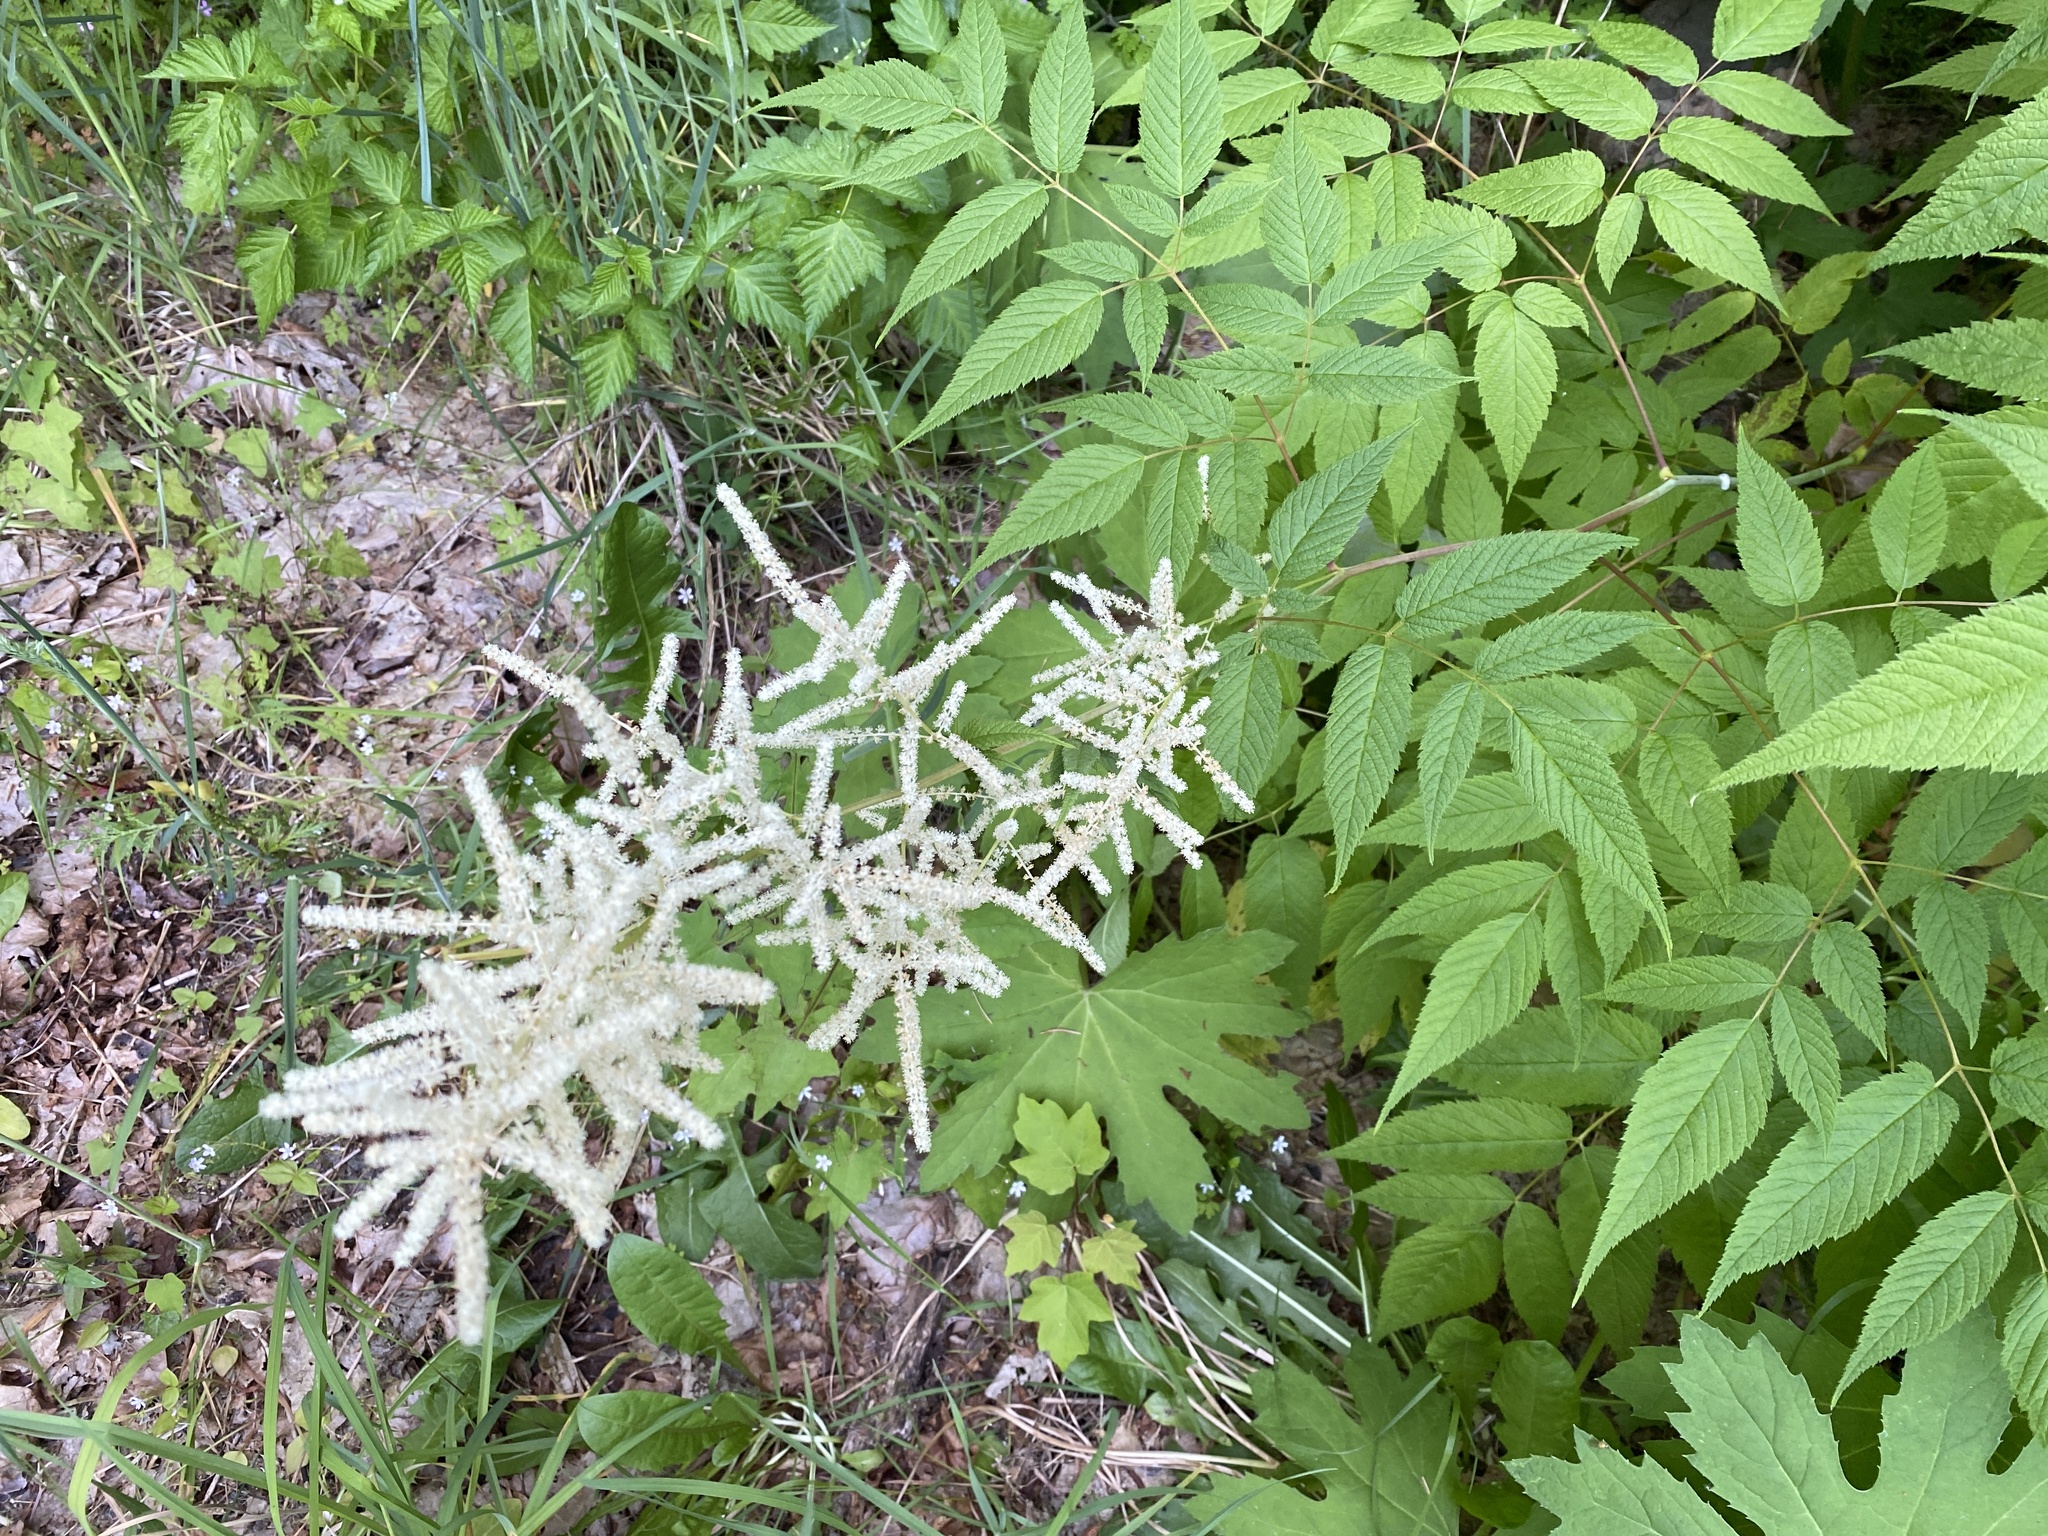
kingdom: Plantae
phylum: Tracheophyta
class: Magnoliopsida
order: Rosales
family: Rosaceae
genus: Aruncus
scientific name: Aruncus dioicus
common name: Buck's-beard
